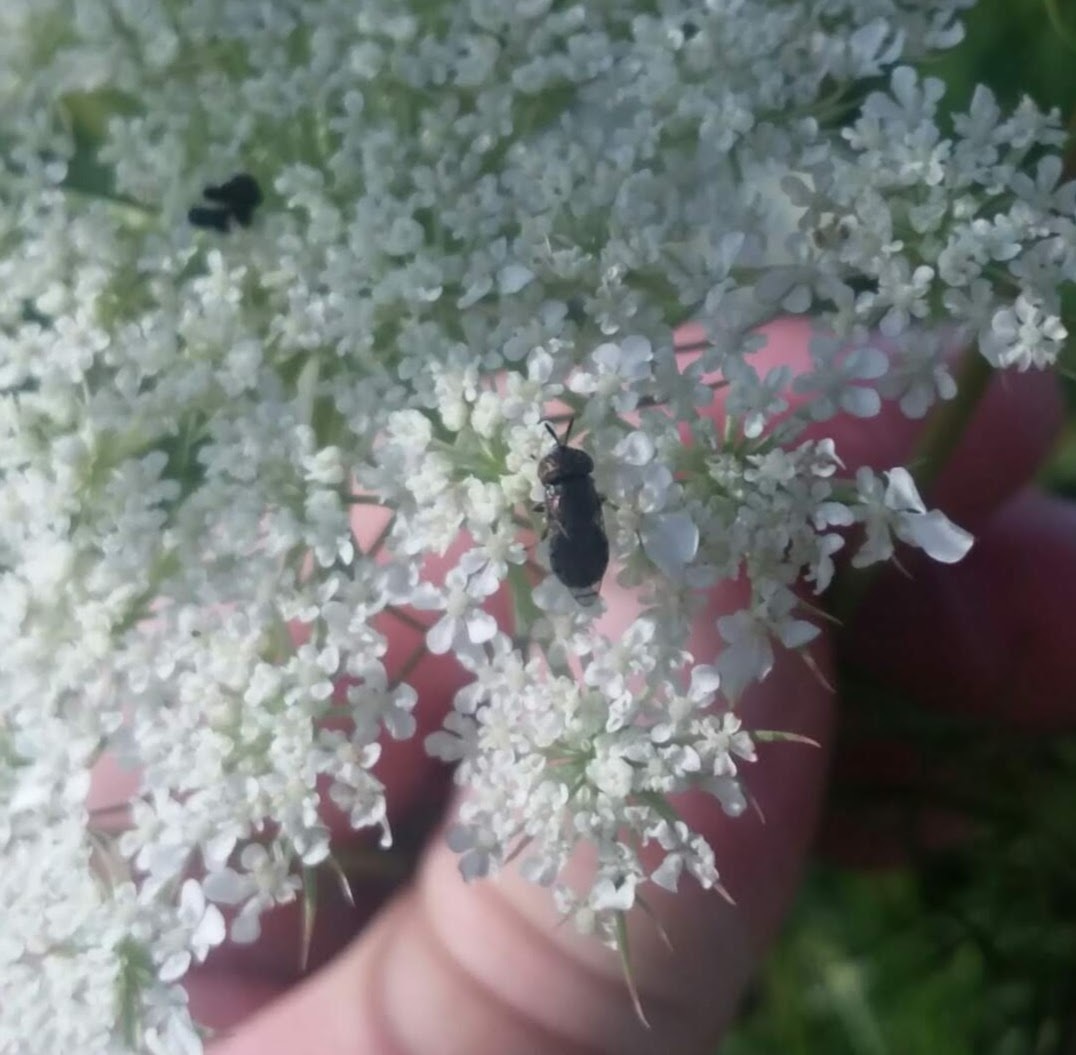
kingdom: Animalia
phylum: Arthropoda
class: Insecta
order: Diptera
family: Syrphidae
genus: Orthonevra
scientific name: Orthonevra nitida
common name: Wavy mucksucker
